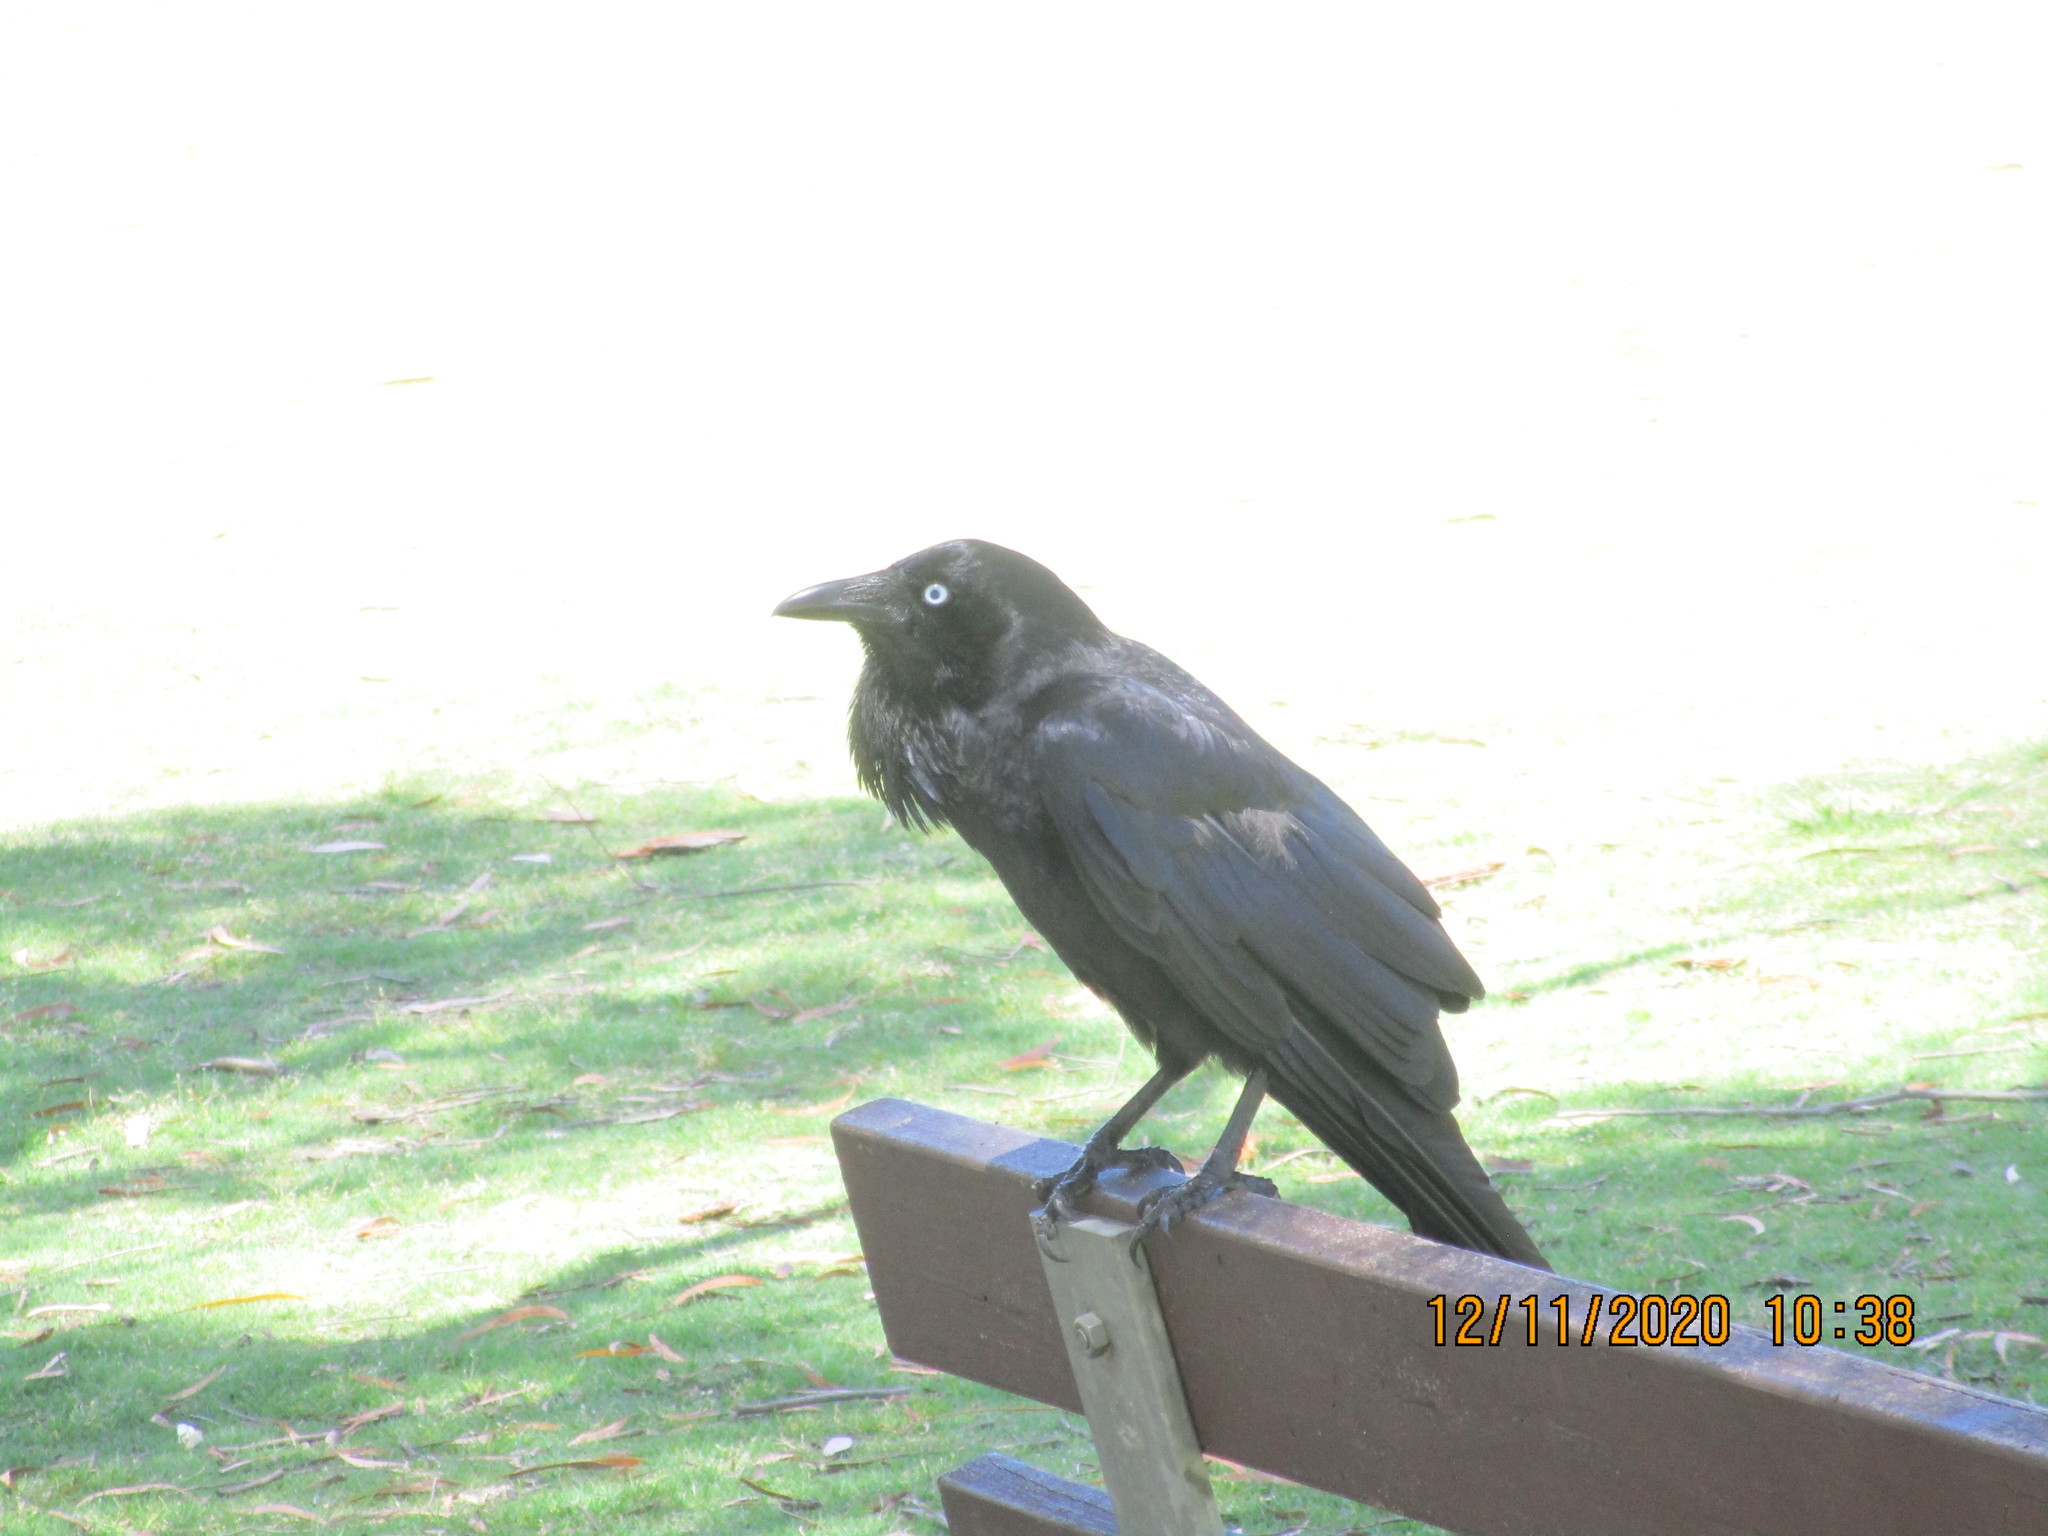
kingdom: Animalia
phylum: Chordata
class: Aves
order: Passeriformes
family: Corvidae
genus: Corvus
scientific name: Corvus coronoides
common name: Australian raven
